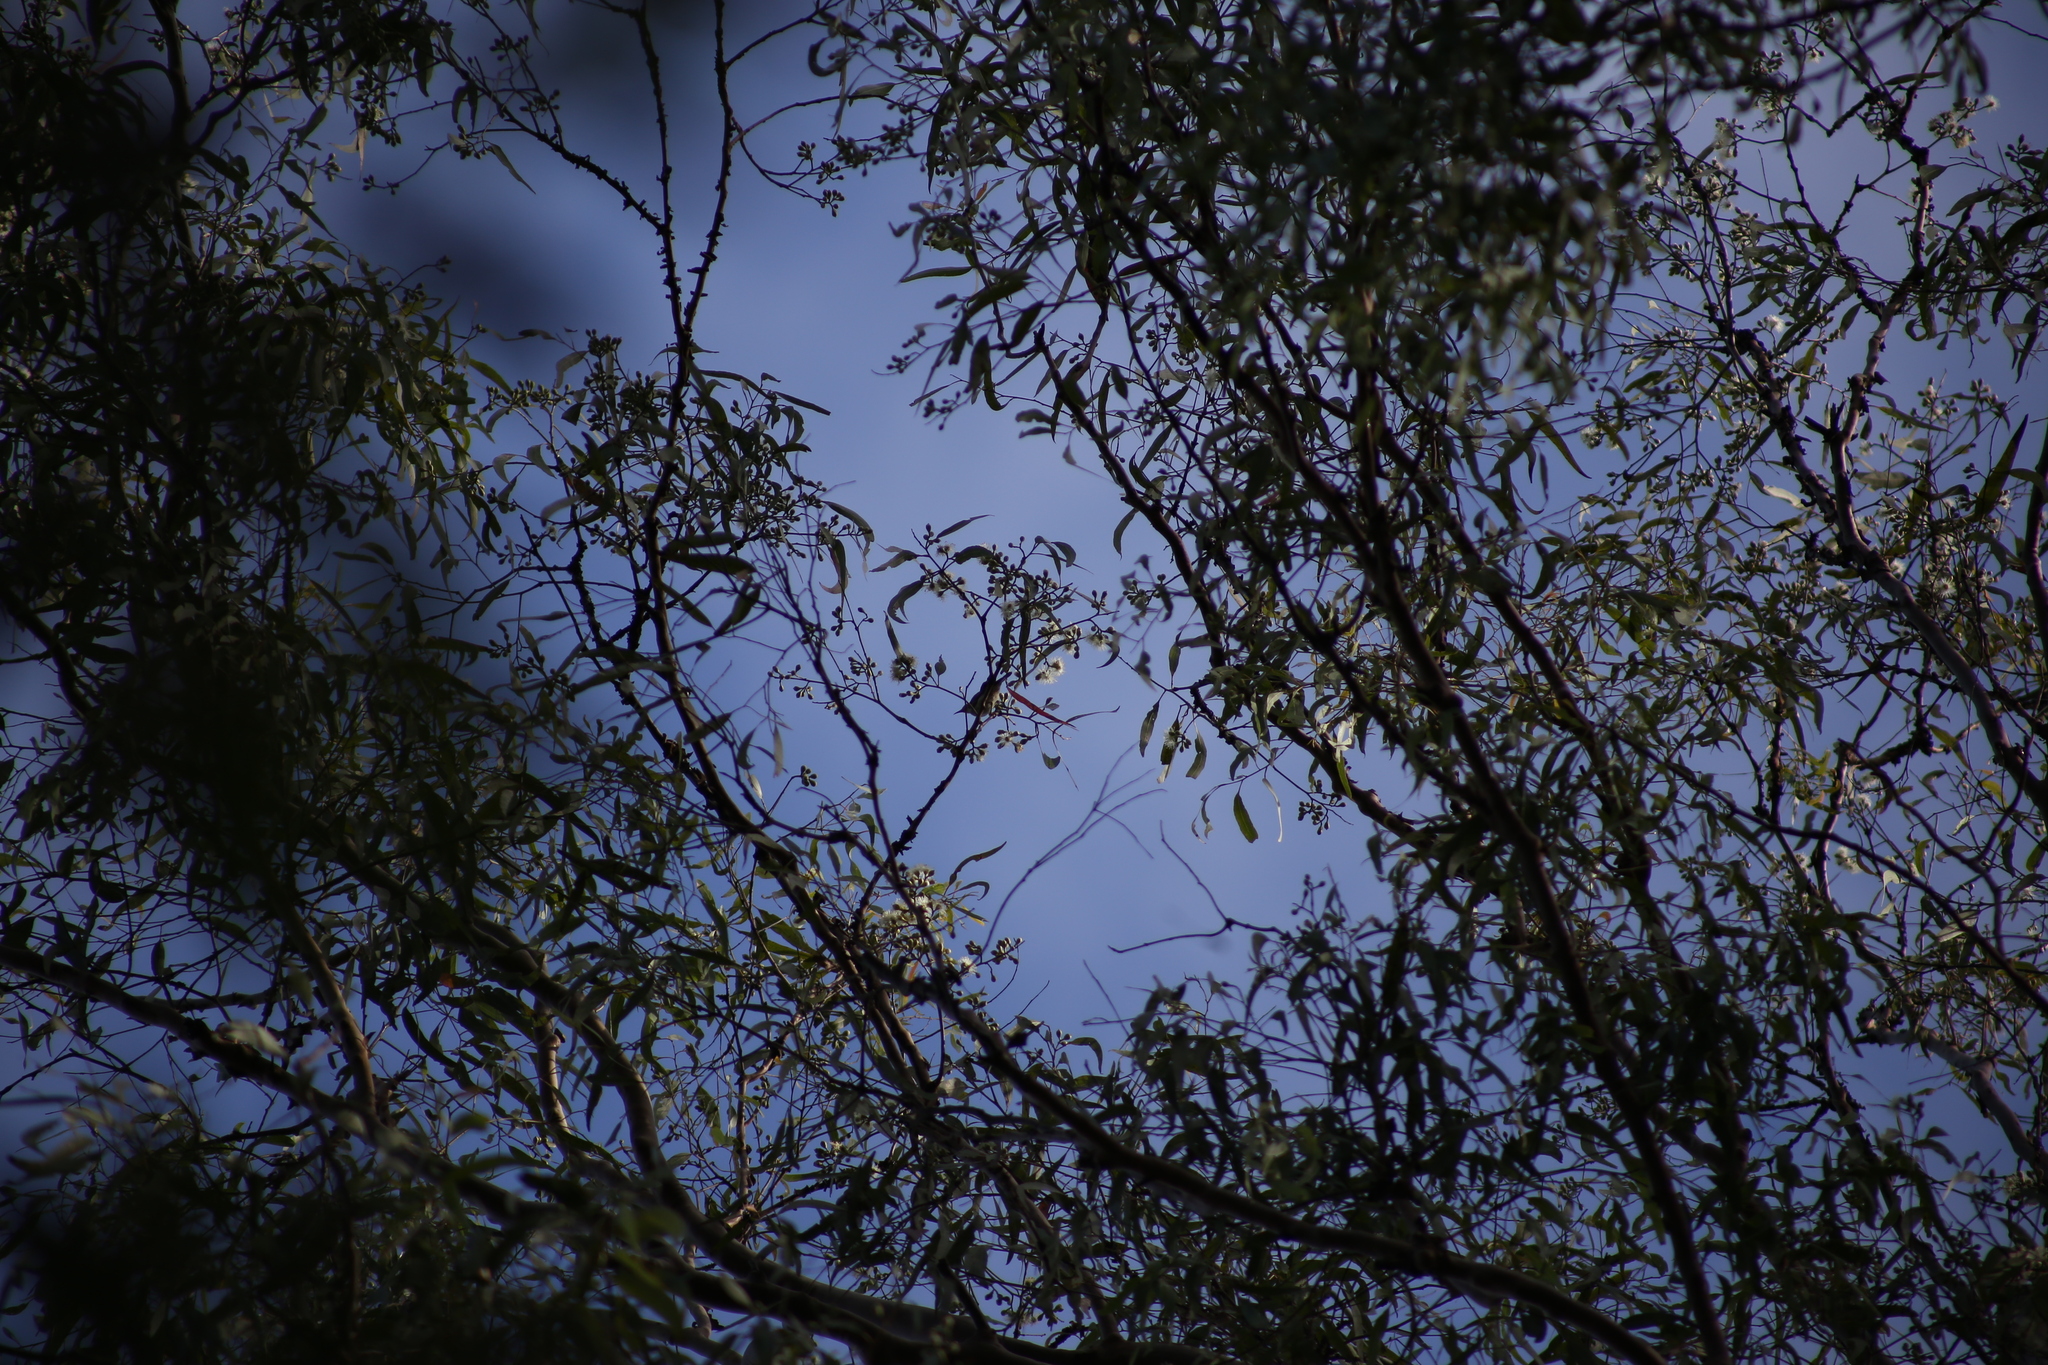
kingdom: Animalia
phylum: Chordata
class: Aves
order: Passeriformes
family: Meliphagidae
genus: Myzomela
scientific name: Myzomela sanguinolenta
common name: Scarlet myzomela
